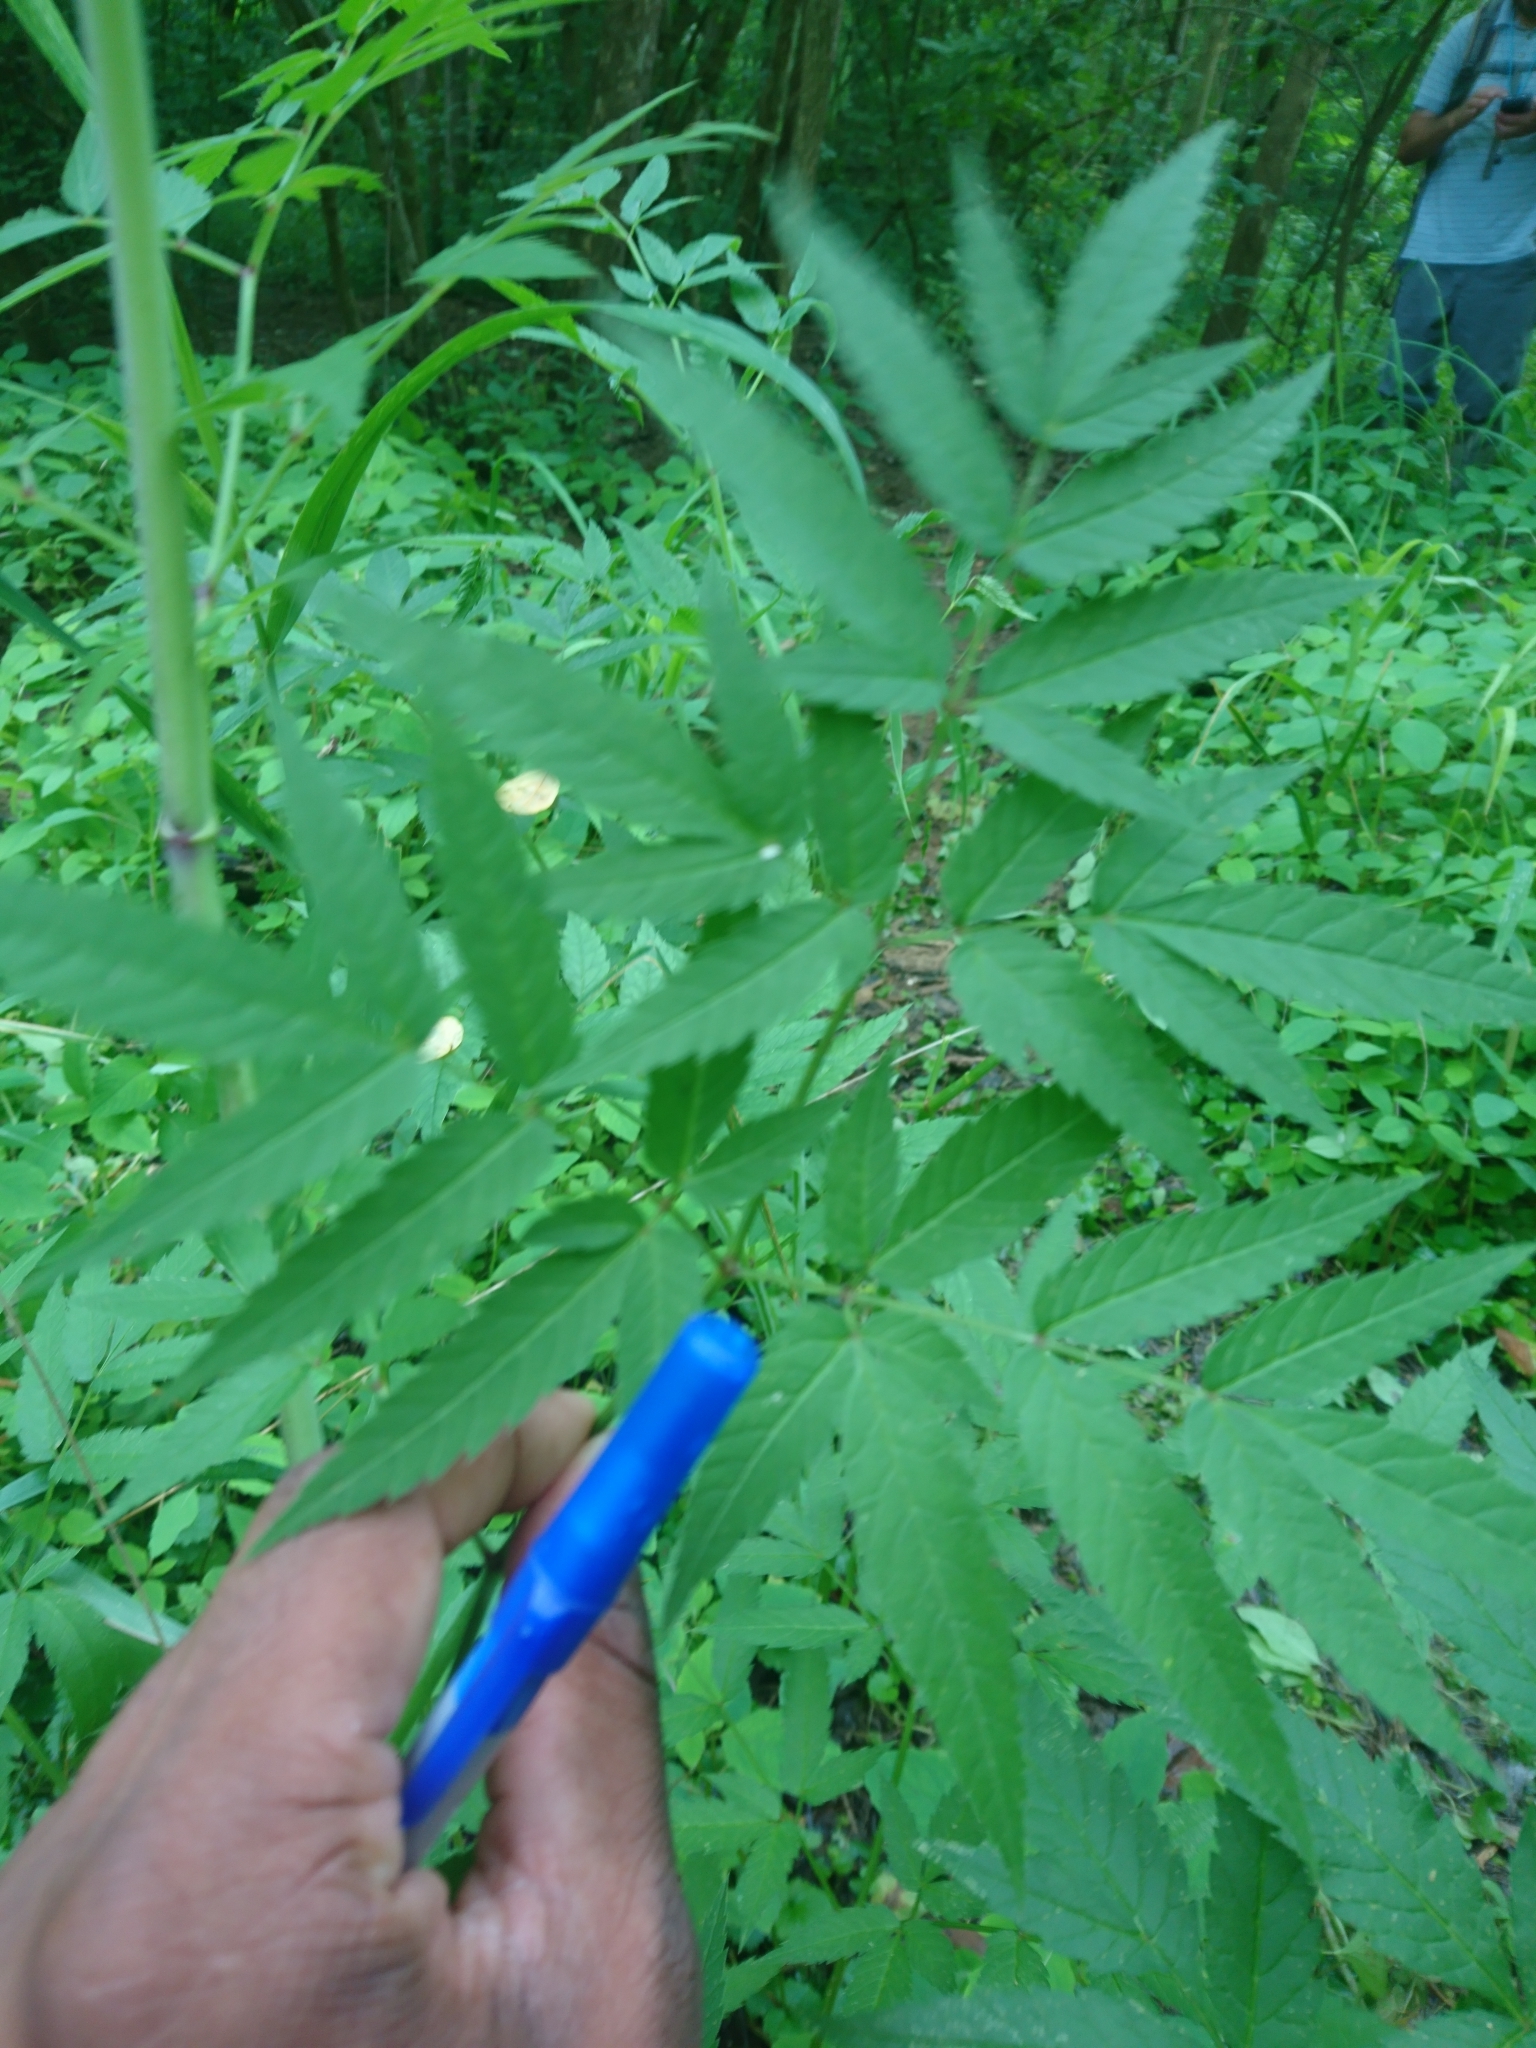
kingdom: Plantae
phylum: Tracheophyta
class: Magnoliopsida
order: Apiales
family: Apiaceae
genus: Cicuta
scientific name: Cicuta maculata
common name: Spotted cowbane
